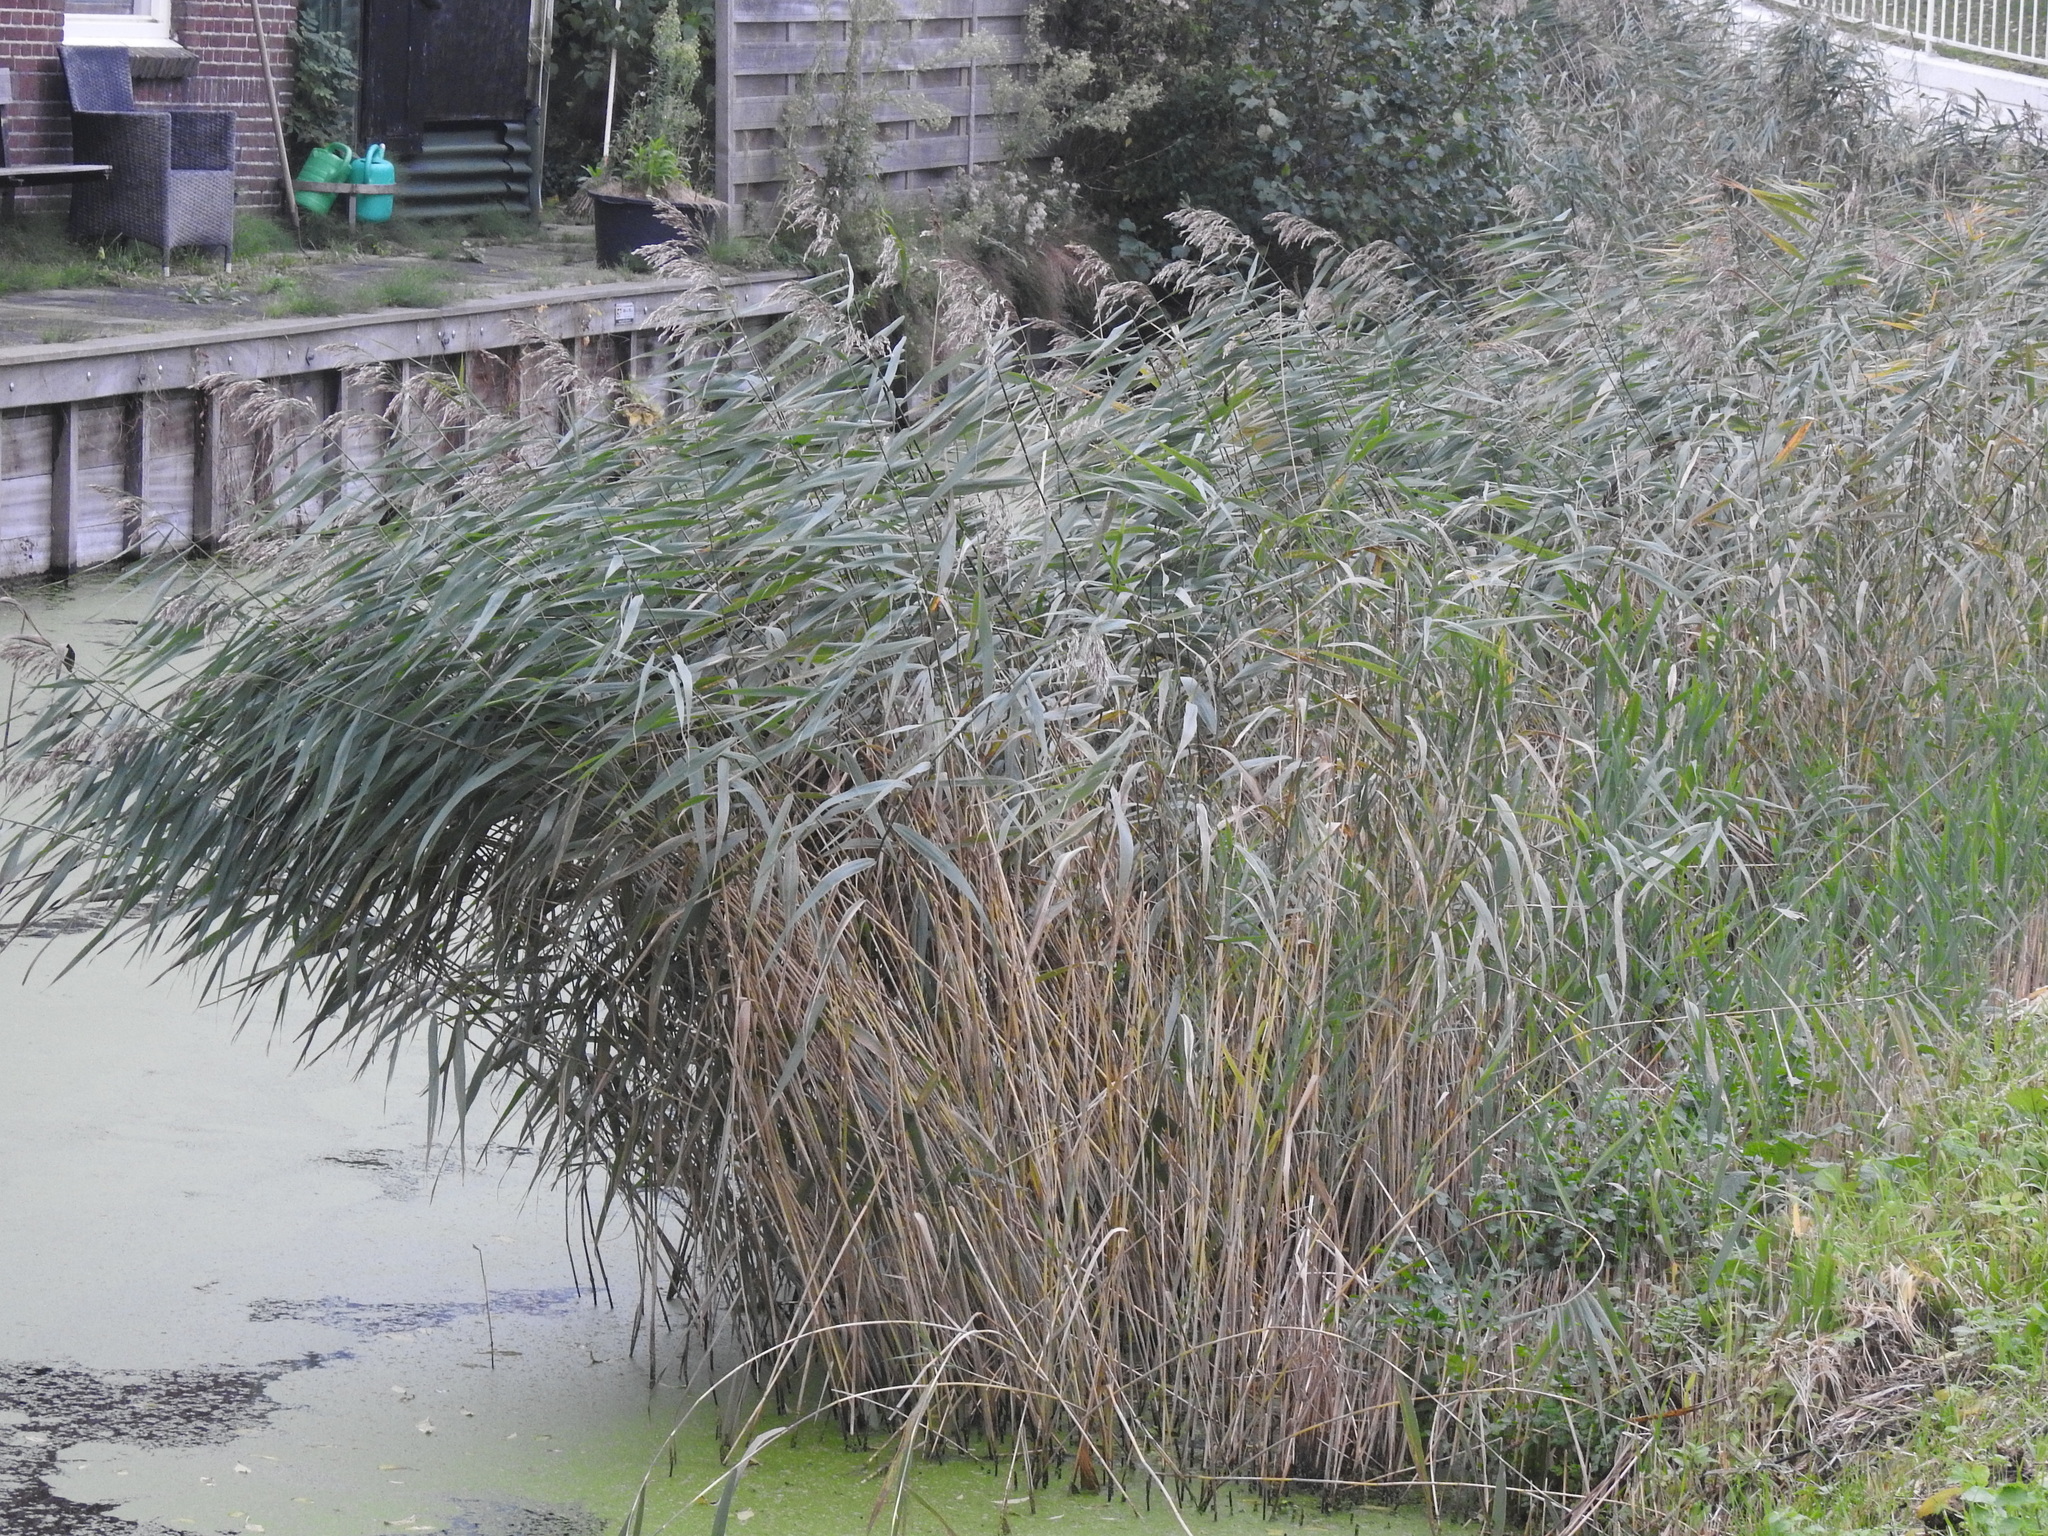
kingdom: Plantae
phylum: Tracheophyta
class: Liliopsida
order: Poales
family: Poaceae
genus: Phragmites
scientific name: Phragmites australis
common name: Common reed
